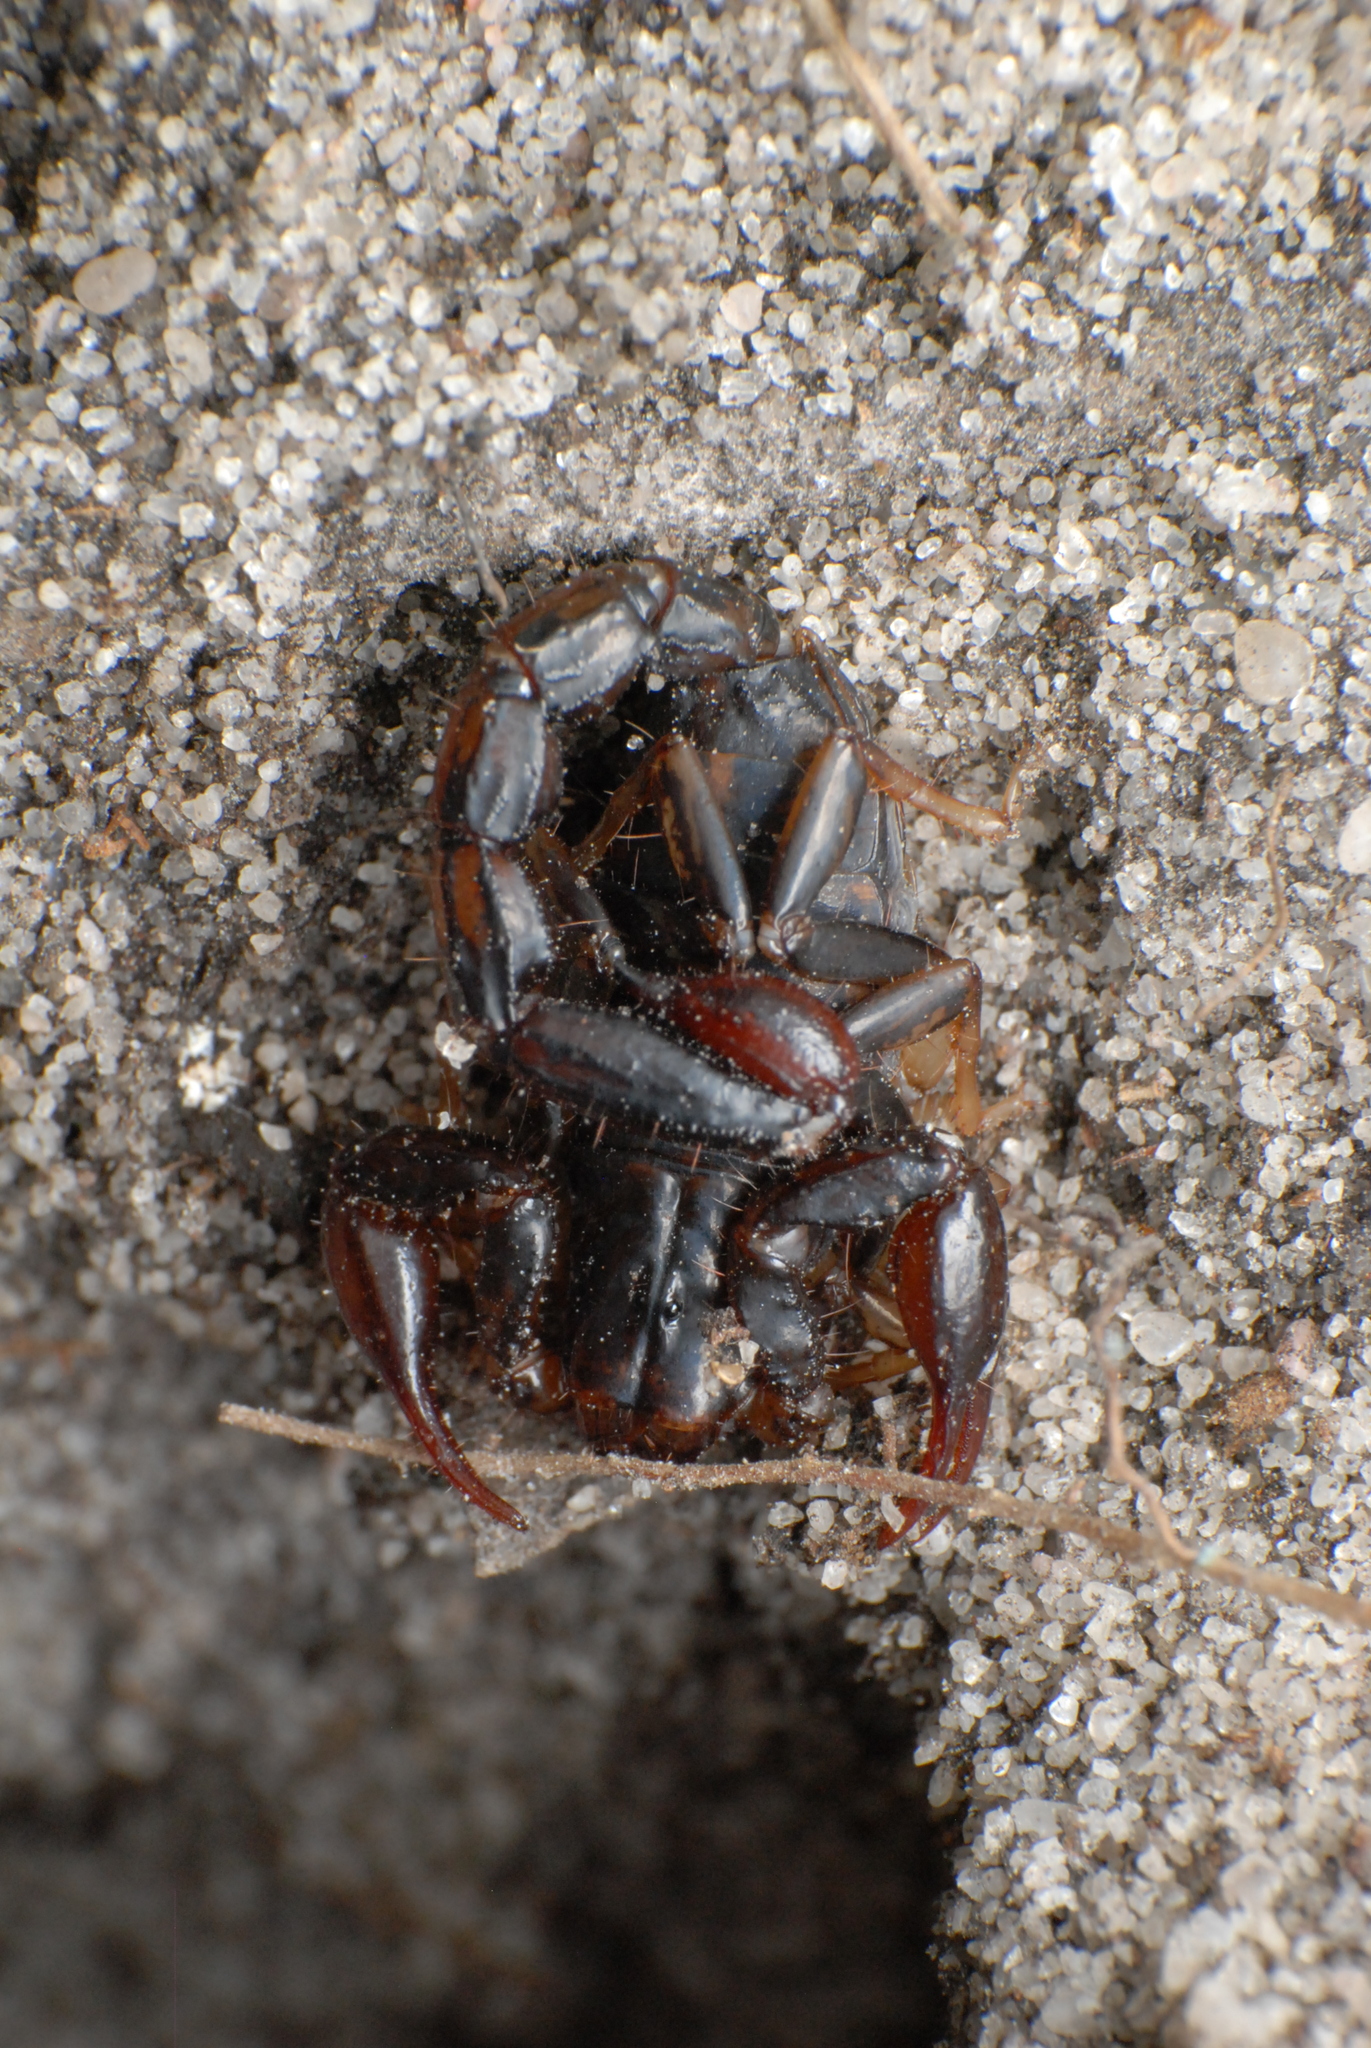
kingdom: Animalia
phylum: Arthropoda
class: Arachnida
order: Scorpiones
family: Bothriuridae
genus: Cercophonius
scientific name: Cercophonius squama
